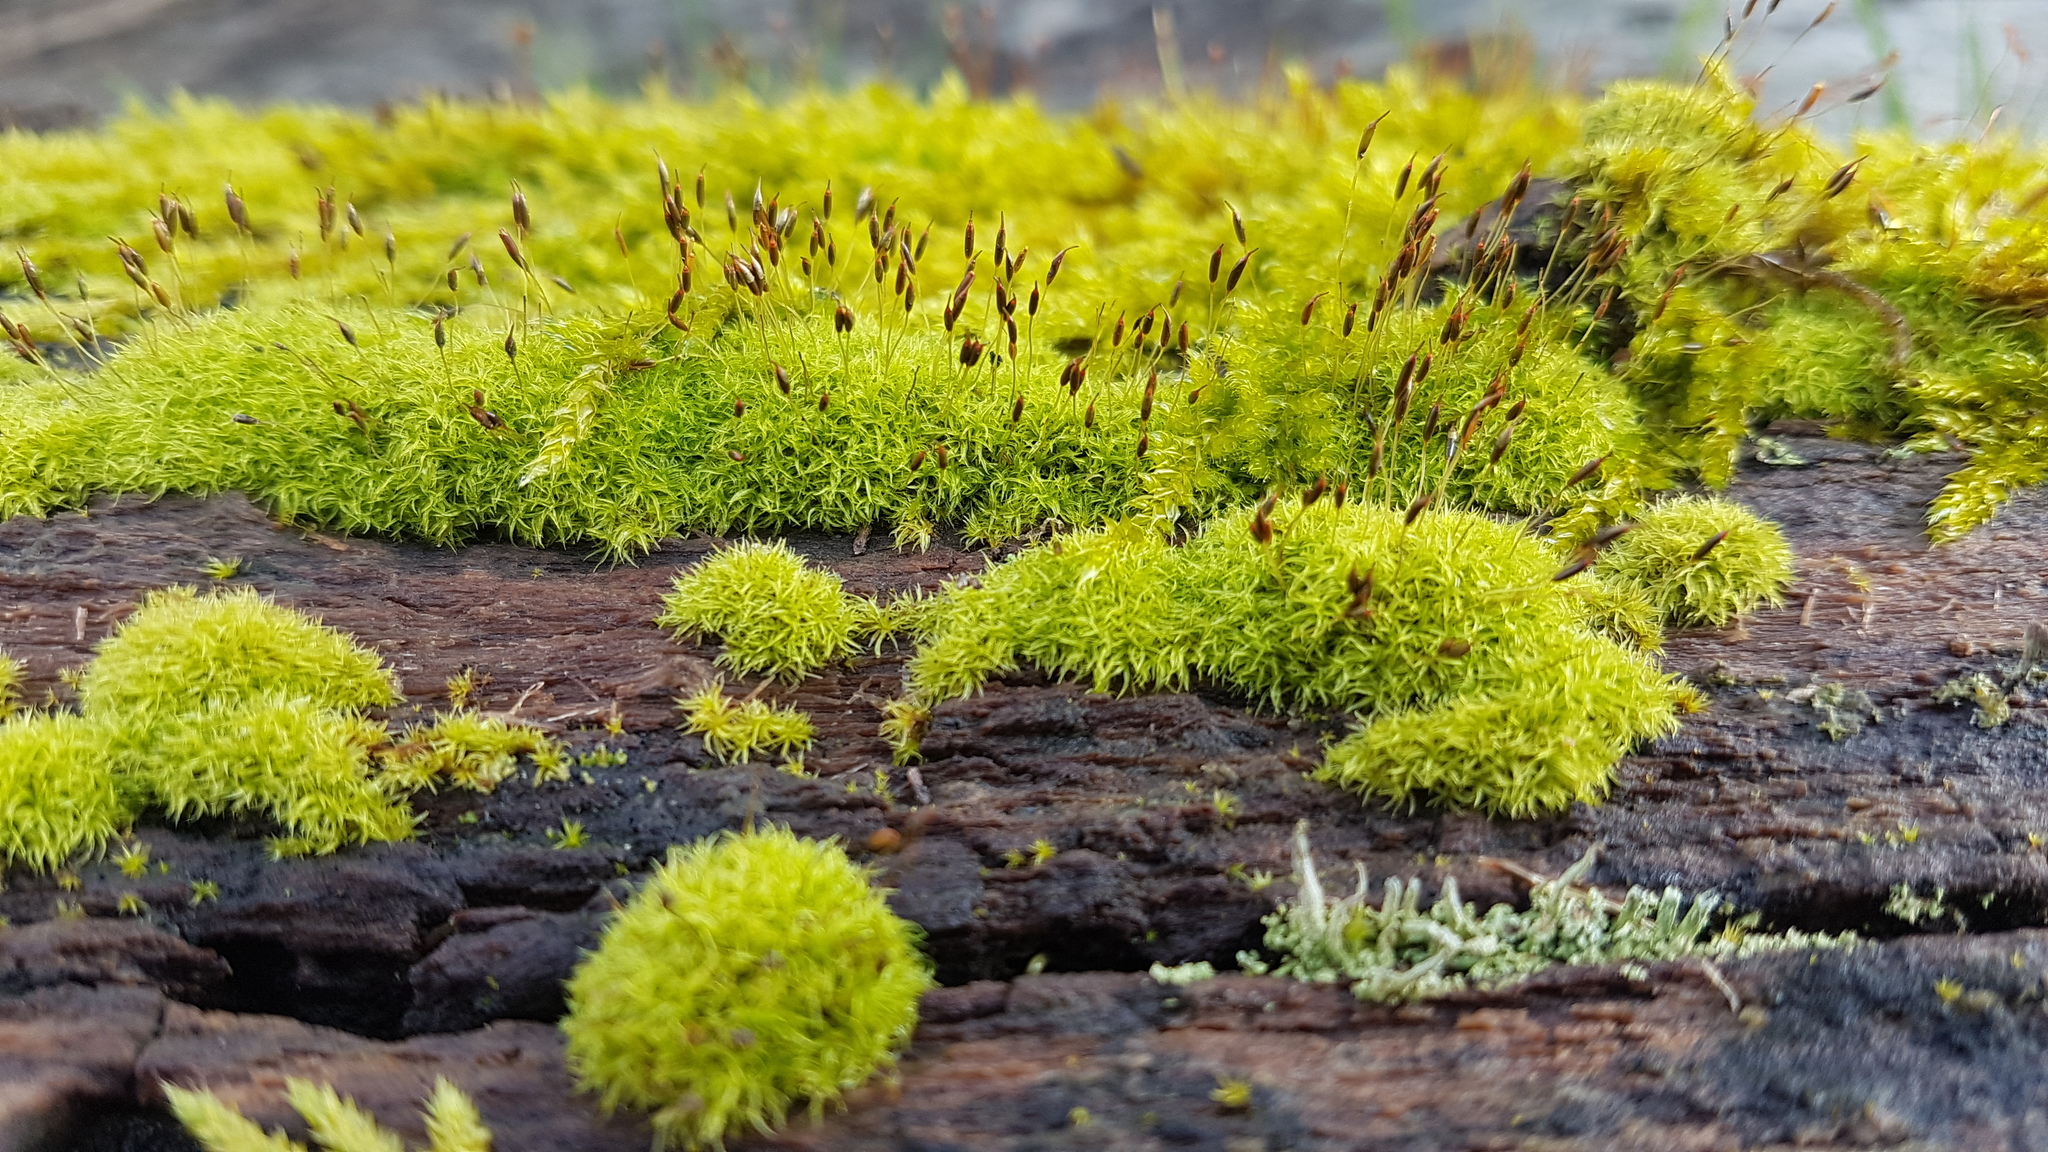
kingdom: Plantae
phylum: Bryophyta
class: Bryopsida
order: Dicranales
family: Rhabdoweisiaceae
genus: Dicranoweisia
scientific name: Dicranoweisia cirrata
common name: Common pincushion
